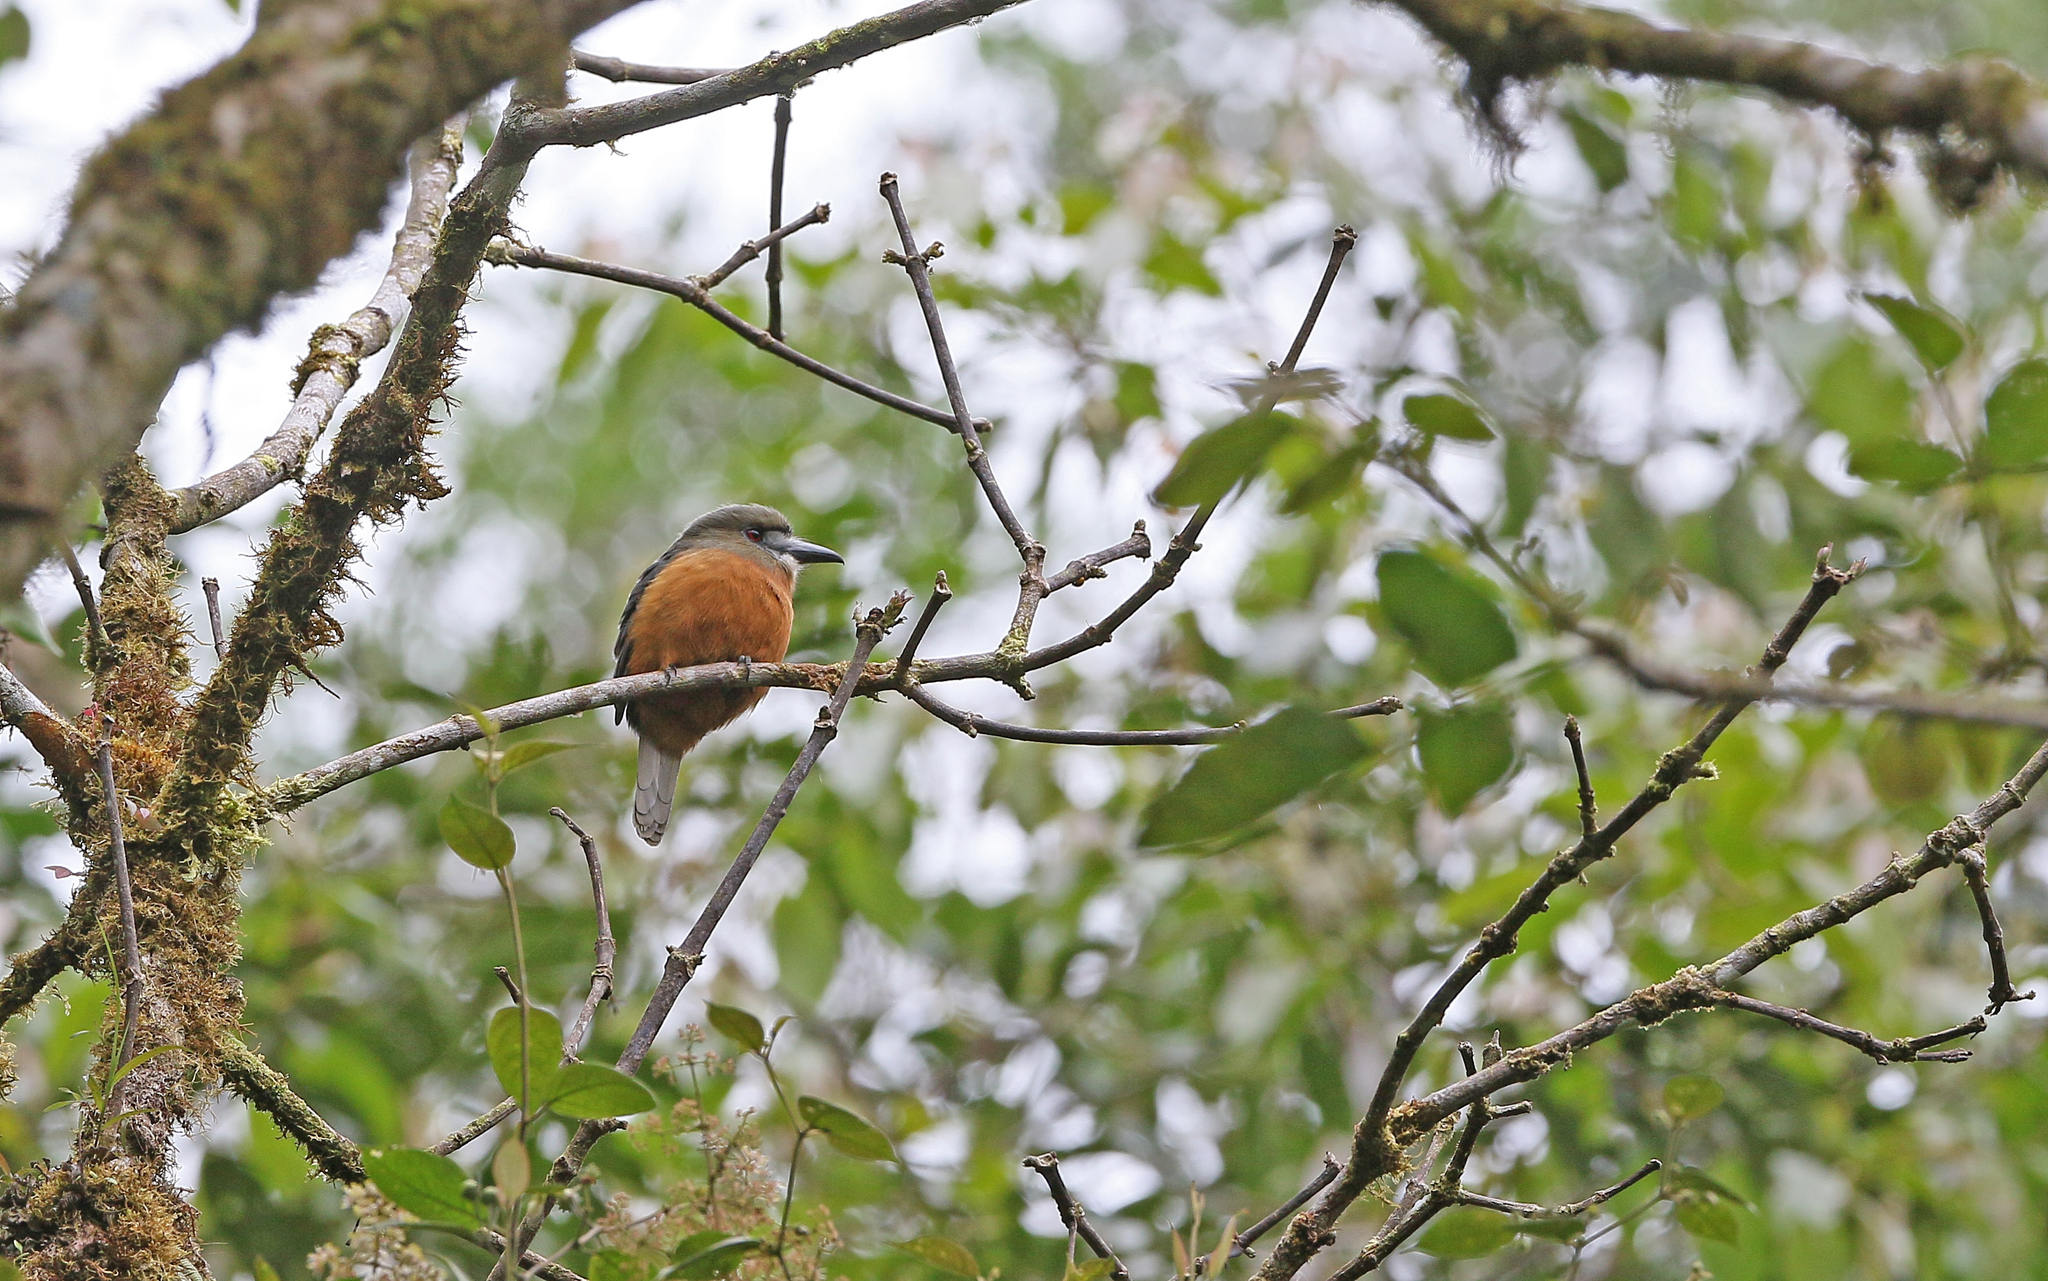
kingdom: Animalia
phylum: Chordata
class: Aves
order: Piciformes
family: Bucconidae
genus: Hapaloptila
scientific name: Hapaloptila castanea
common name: White-faced nunbird
